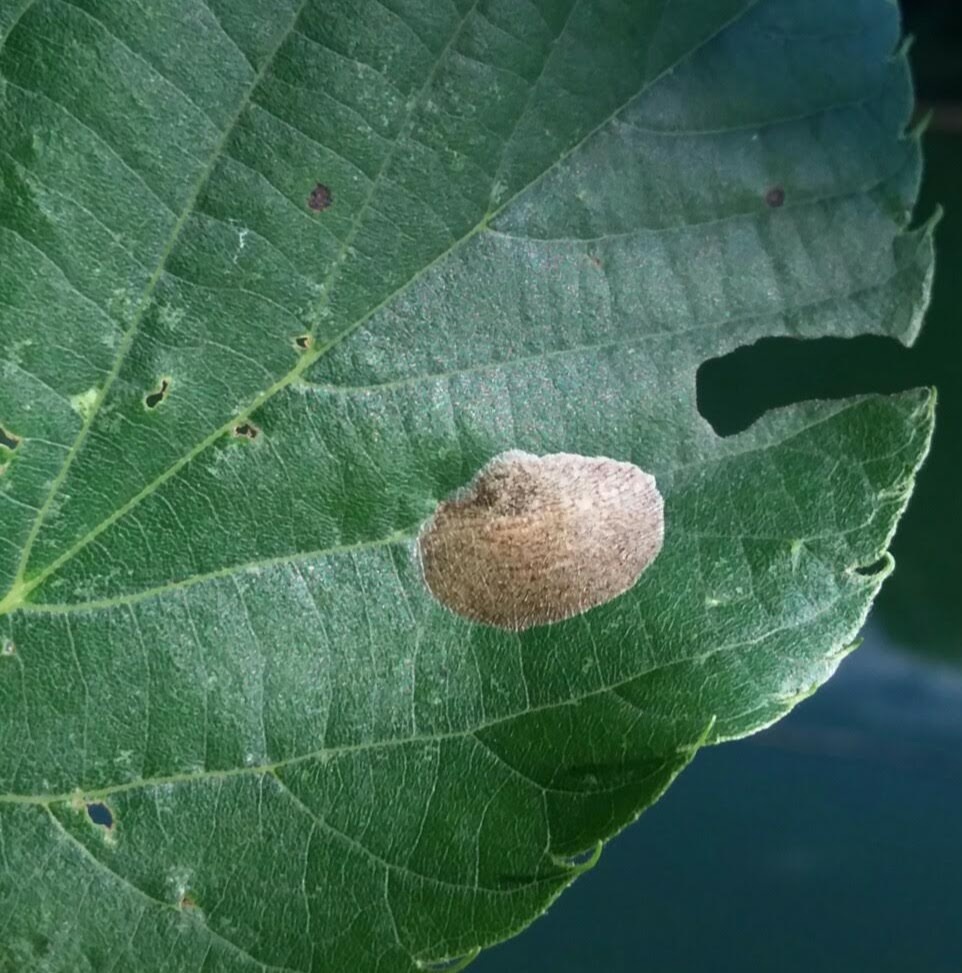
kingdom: Animalia
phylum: Arthropoda
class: Insecta
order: Lepidoptera
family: Gracillariidae
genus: Phyllonorycter
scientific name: Phyllonorycter tiliacella
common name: Basswood round-blotch miner moth
